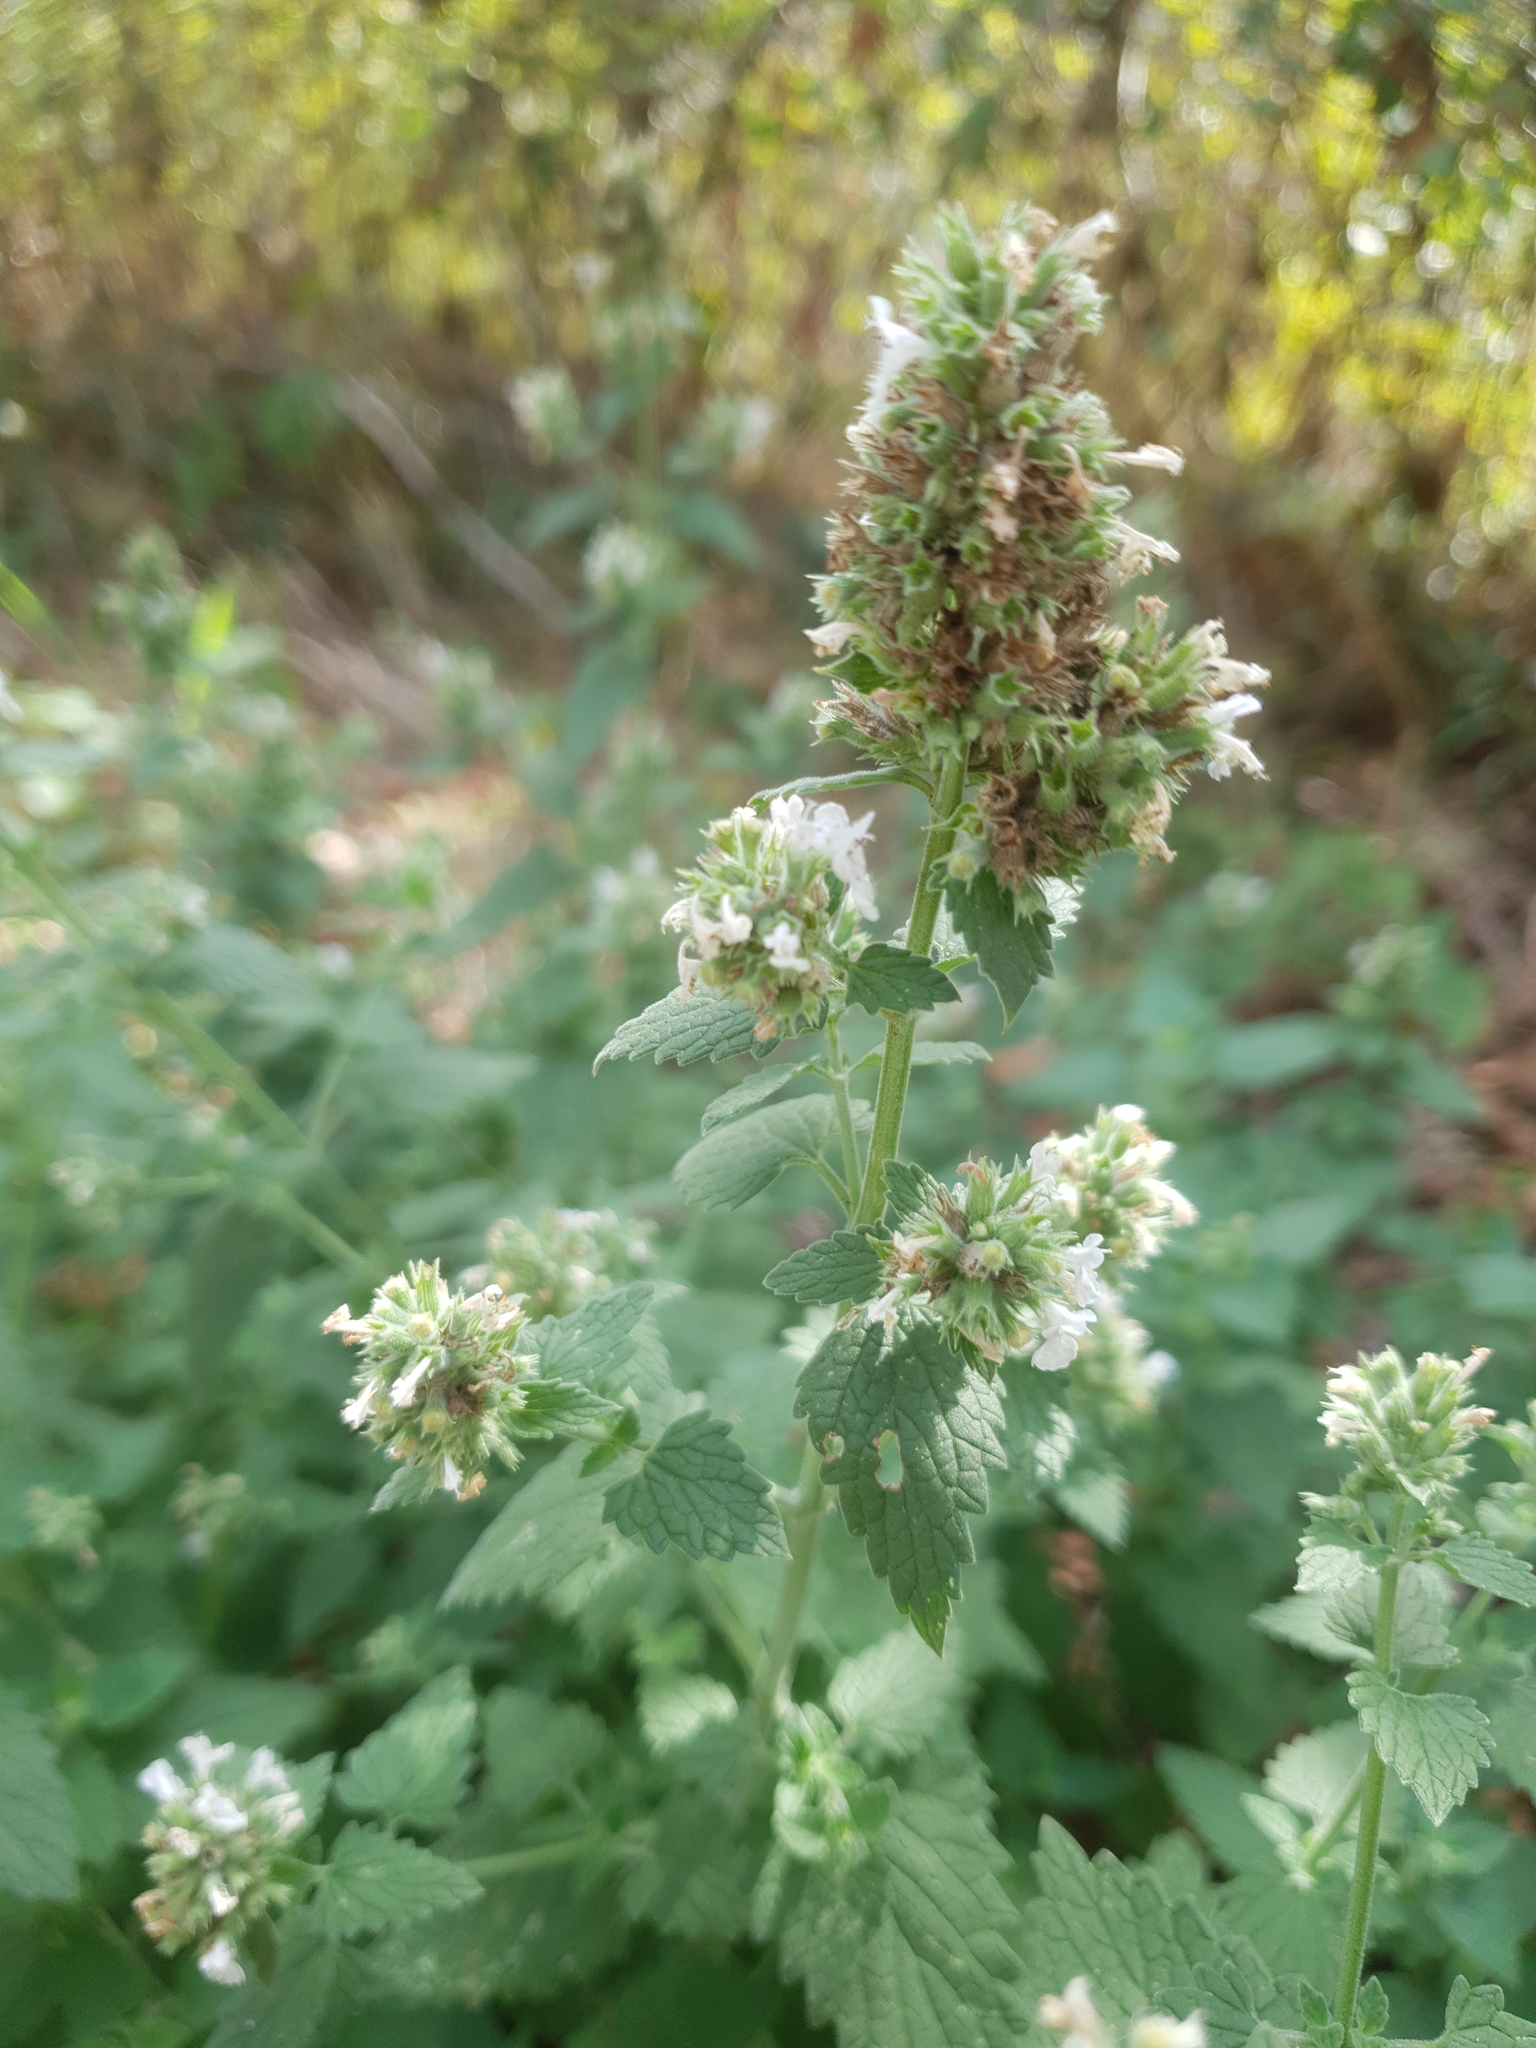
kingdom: Plantae
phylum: Tracheophyta
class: Magnoliopsida
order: Lamiales
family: Lamiaceae
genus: Nepeta
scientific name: Nepeta cataria
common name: Catnip
